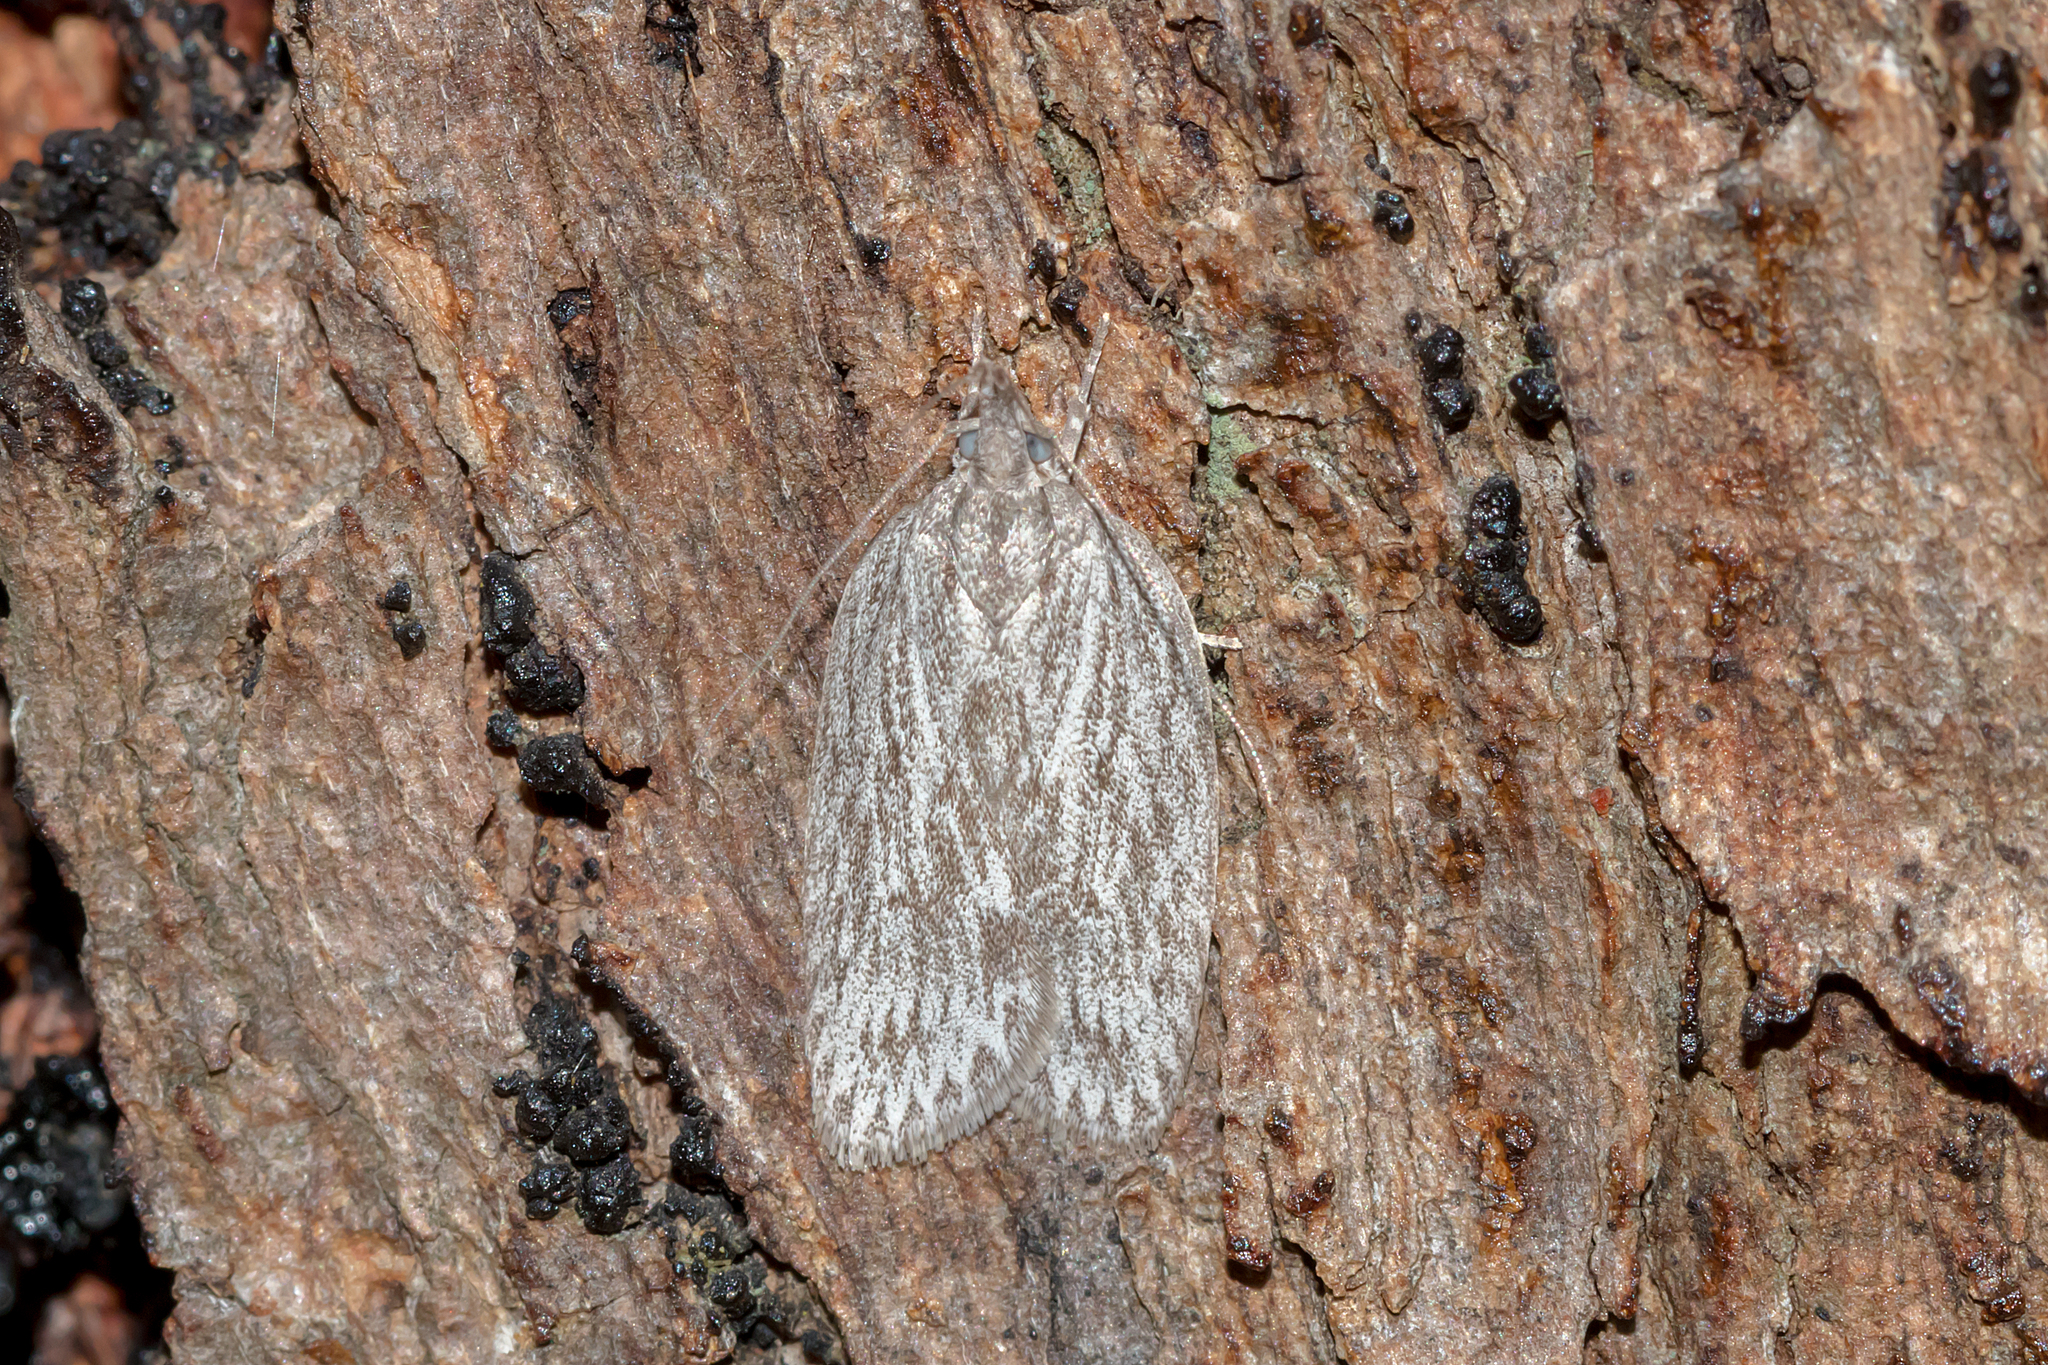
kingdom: Animalia
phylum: Arthropoda
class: Insecta
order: Lepidoptera
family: Depressariidae
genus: Pedois
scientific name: Pedois lewinella
